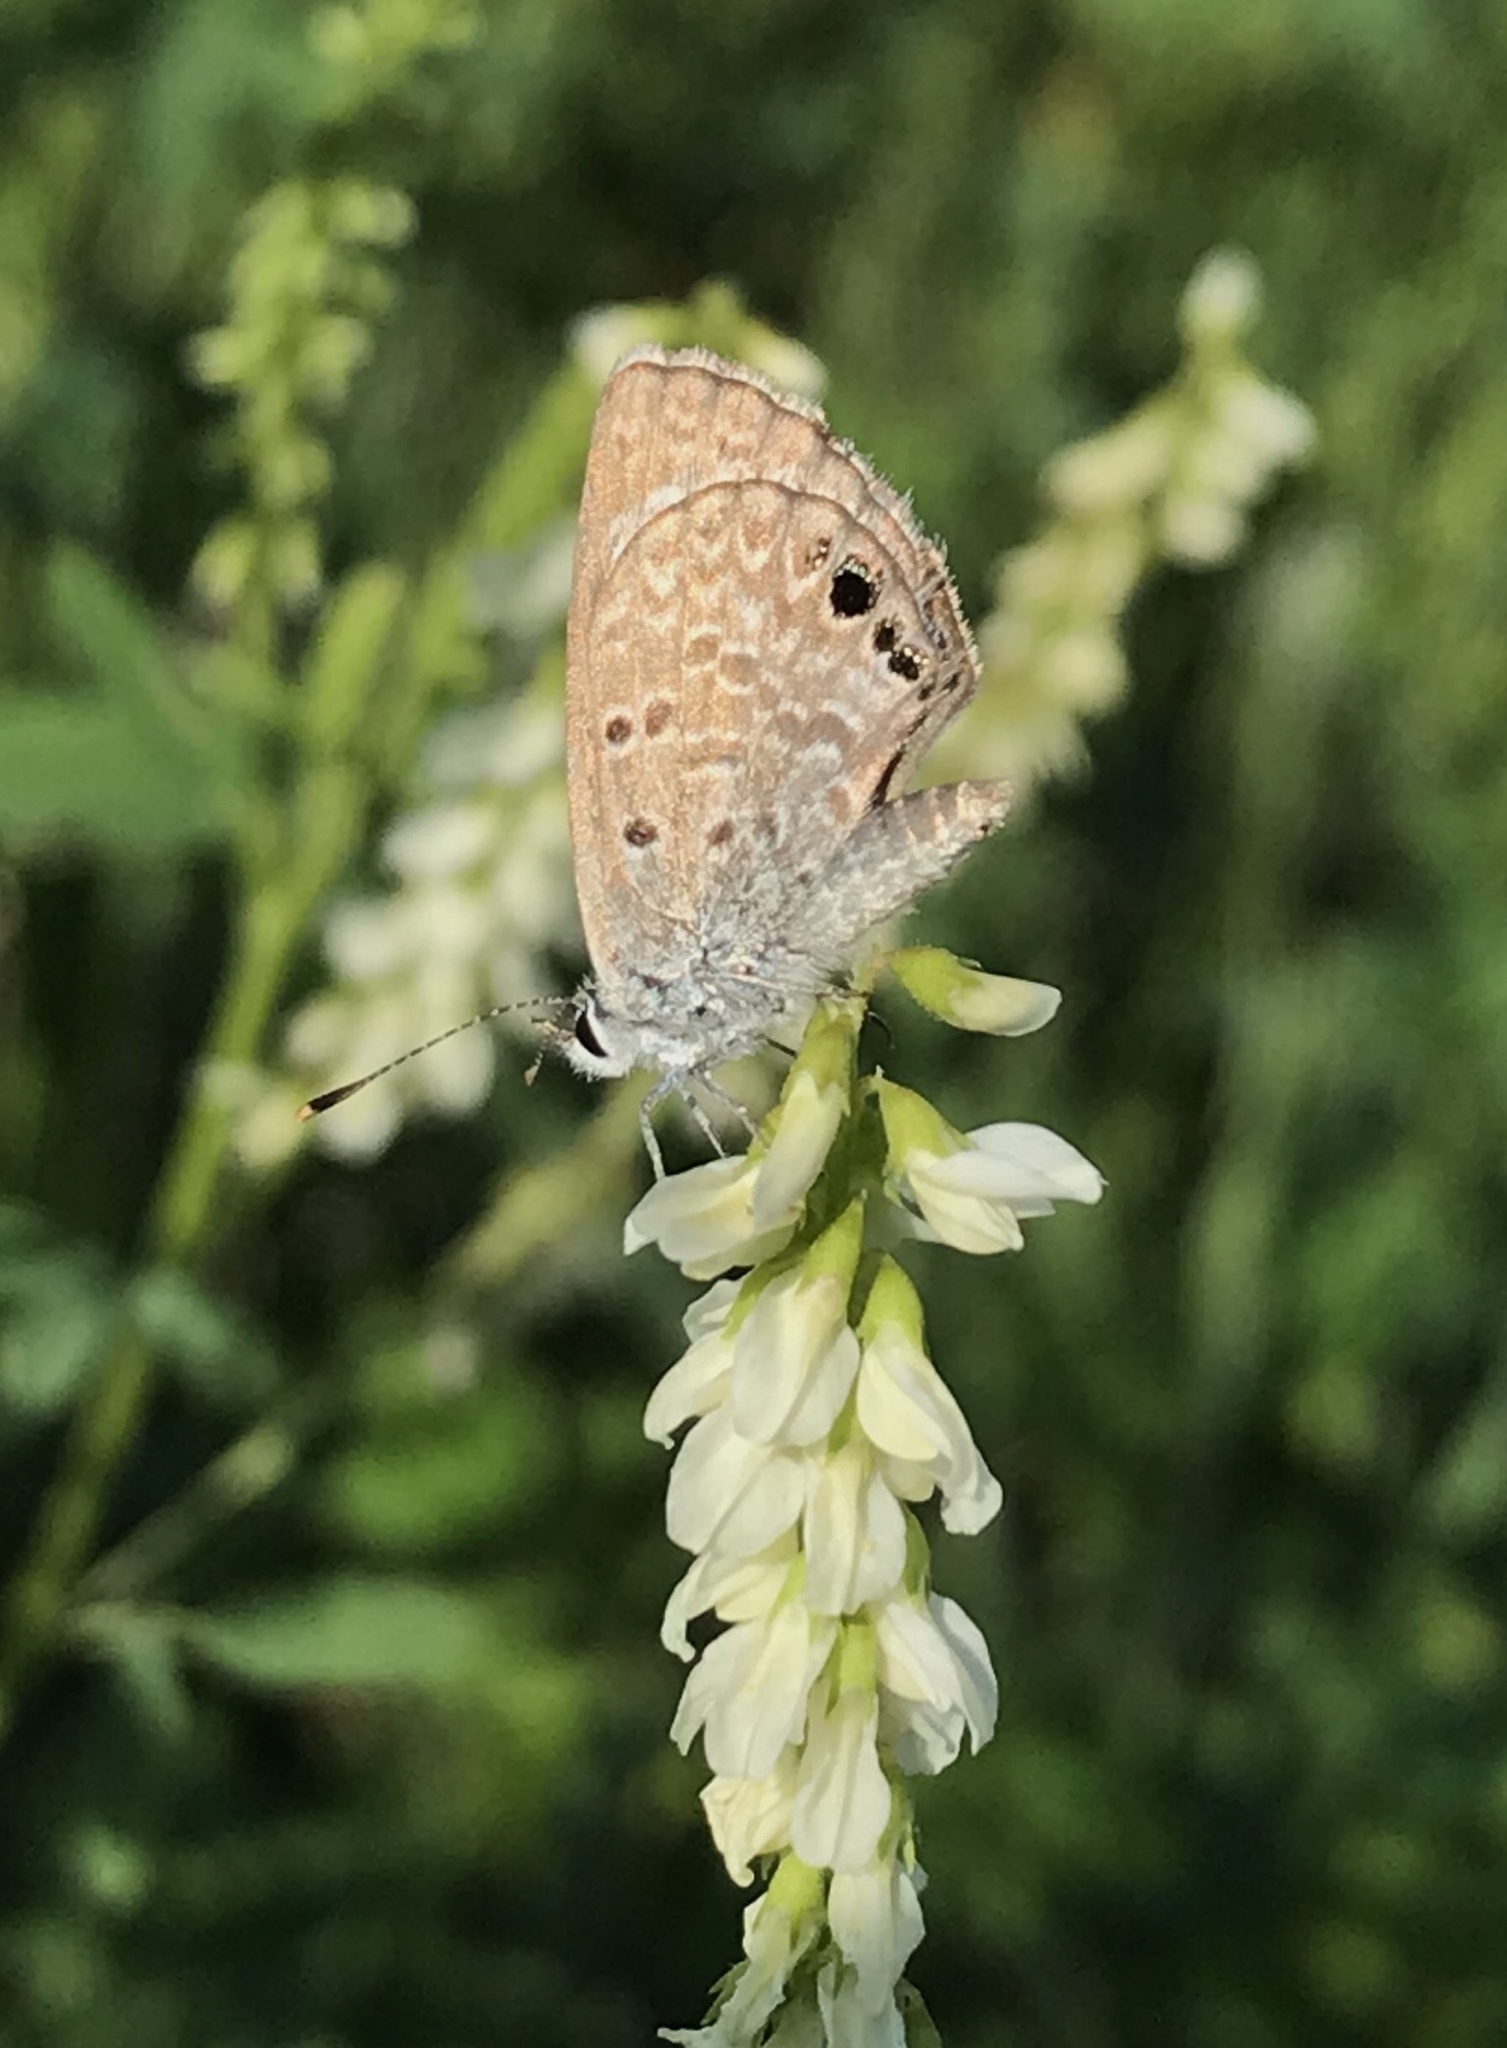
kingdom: Animalia
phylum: Arthropoda
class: Insecta
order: Lepidoptera
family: Lycaenidae
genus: Hemiargus
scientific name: Hemiargus ceraunus
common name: Ceraunus blue
